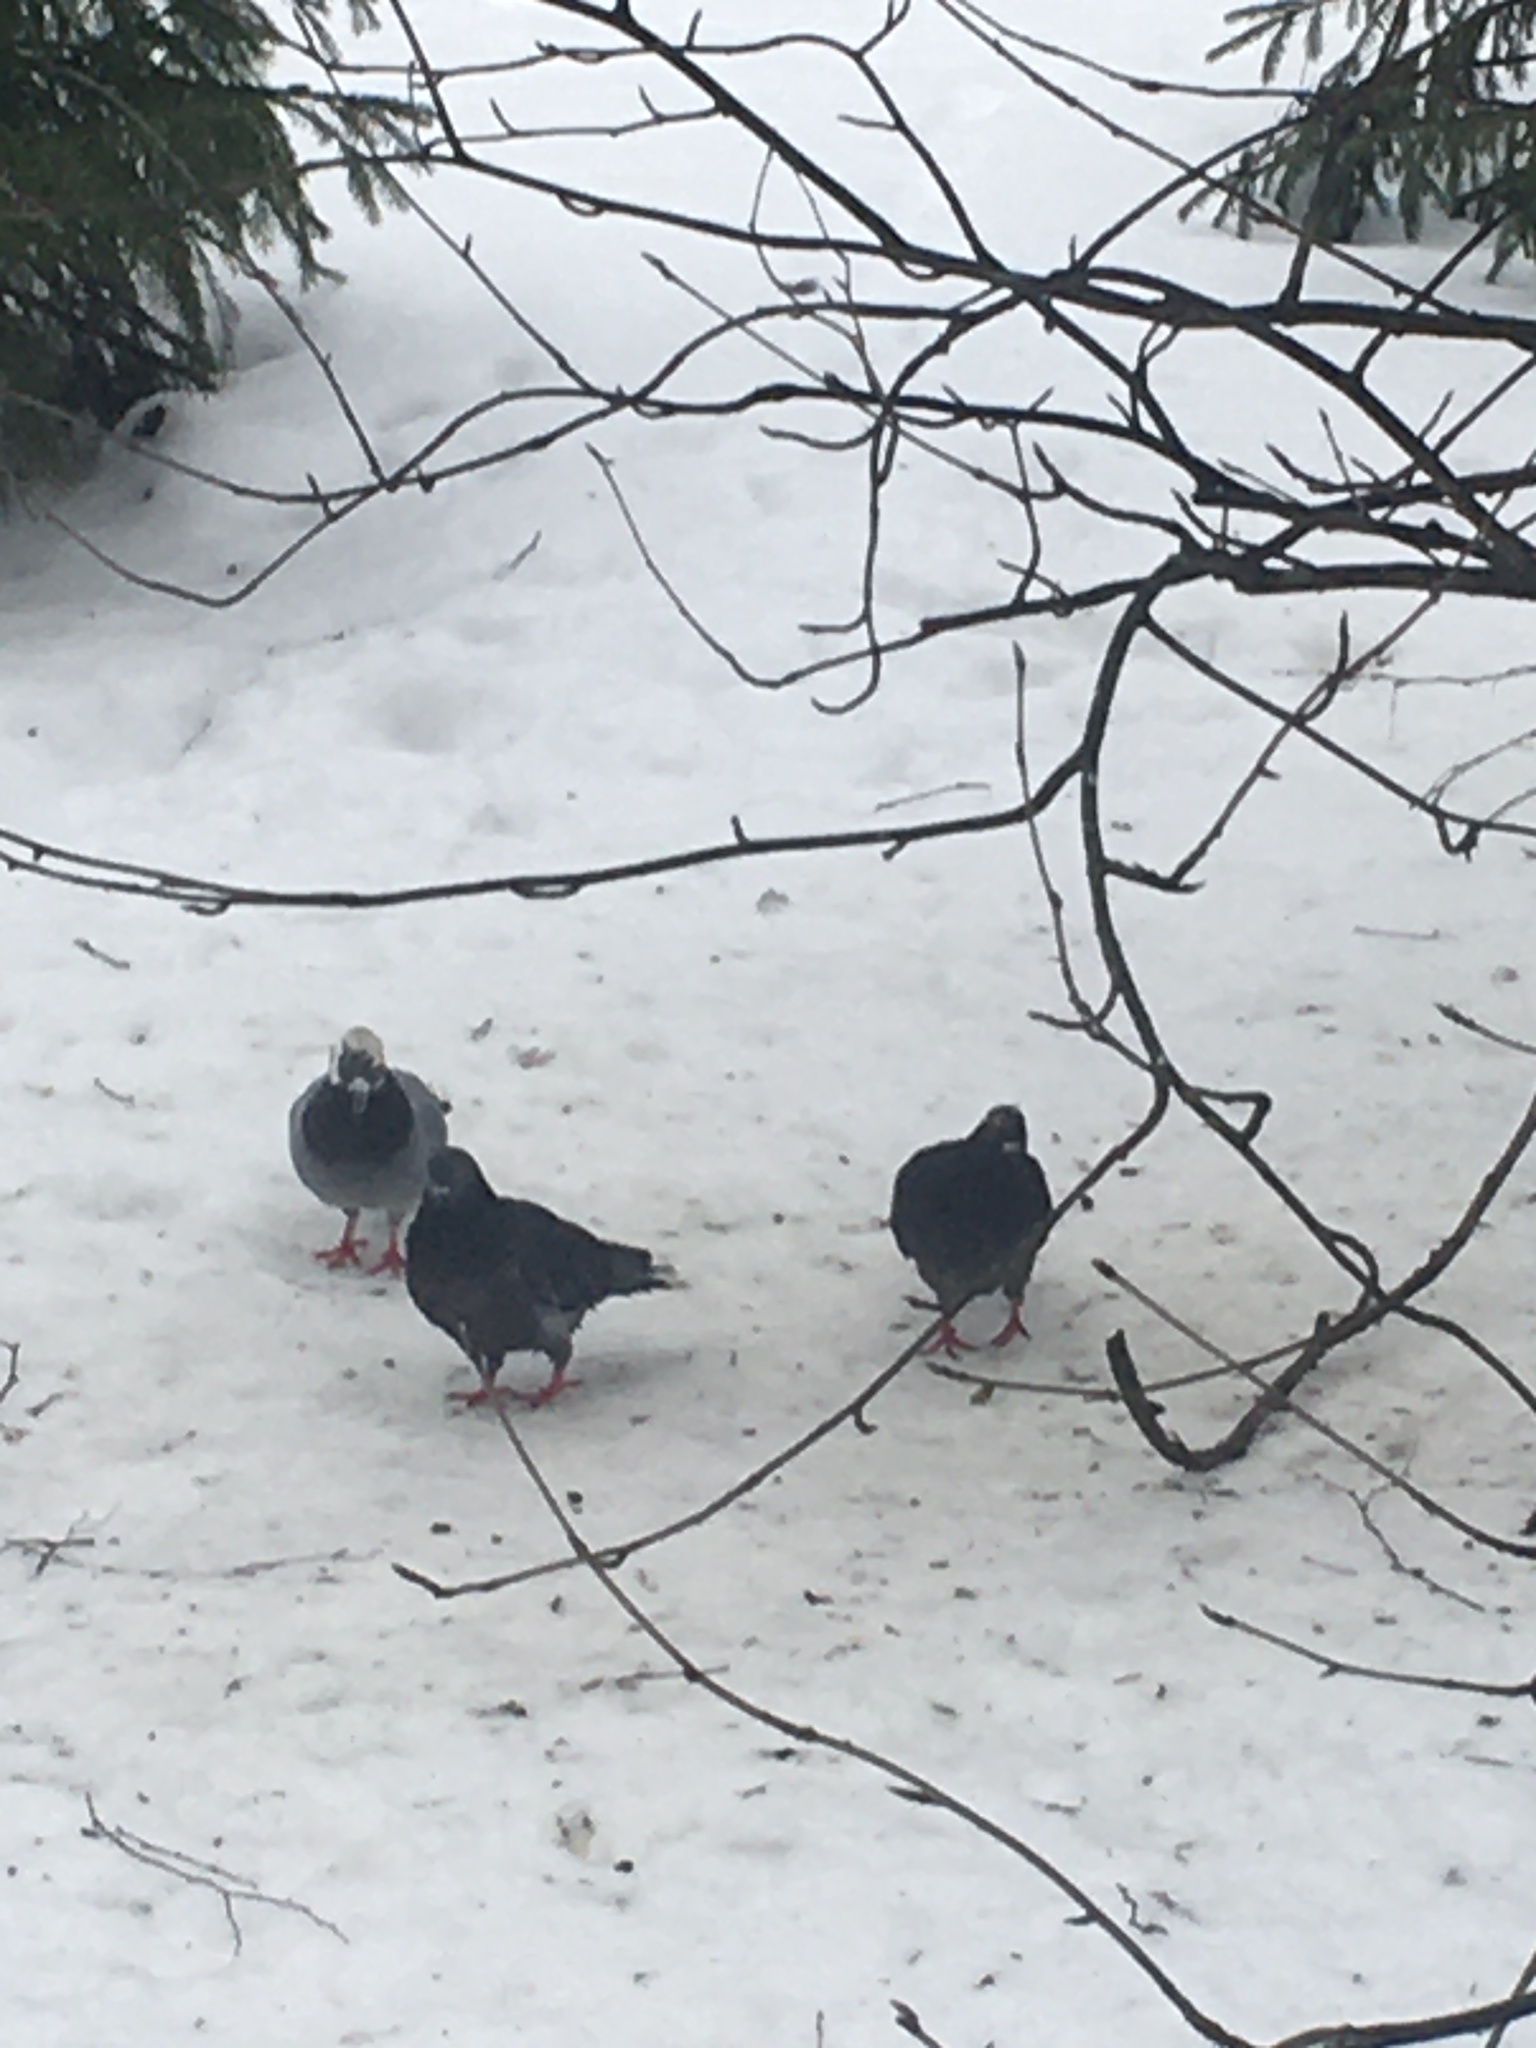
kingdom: Animalia
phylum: Chordata
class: Aves
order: Columbiformes
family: Columbidae
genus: Columba
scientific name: Columba livia
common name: Rock pigeon
